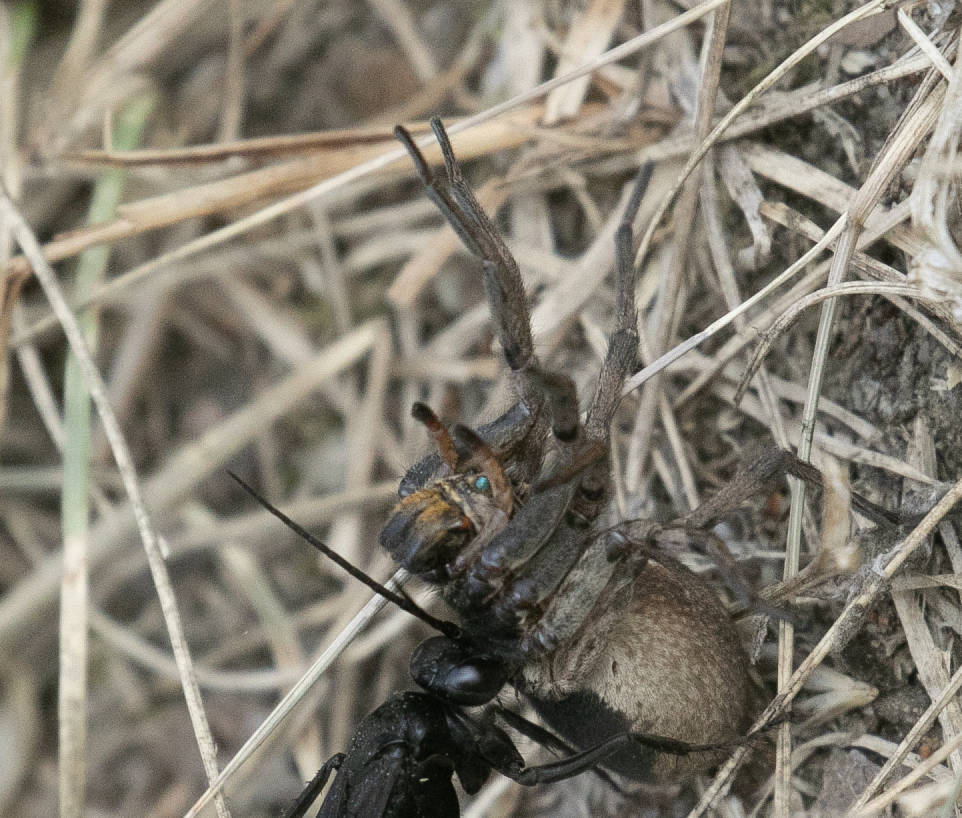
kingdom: Animalia
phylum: Arthropoda
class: Arachnida
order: Araneae
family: Lycosidae
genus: Hogna
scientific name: Hogna radiata
